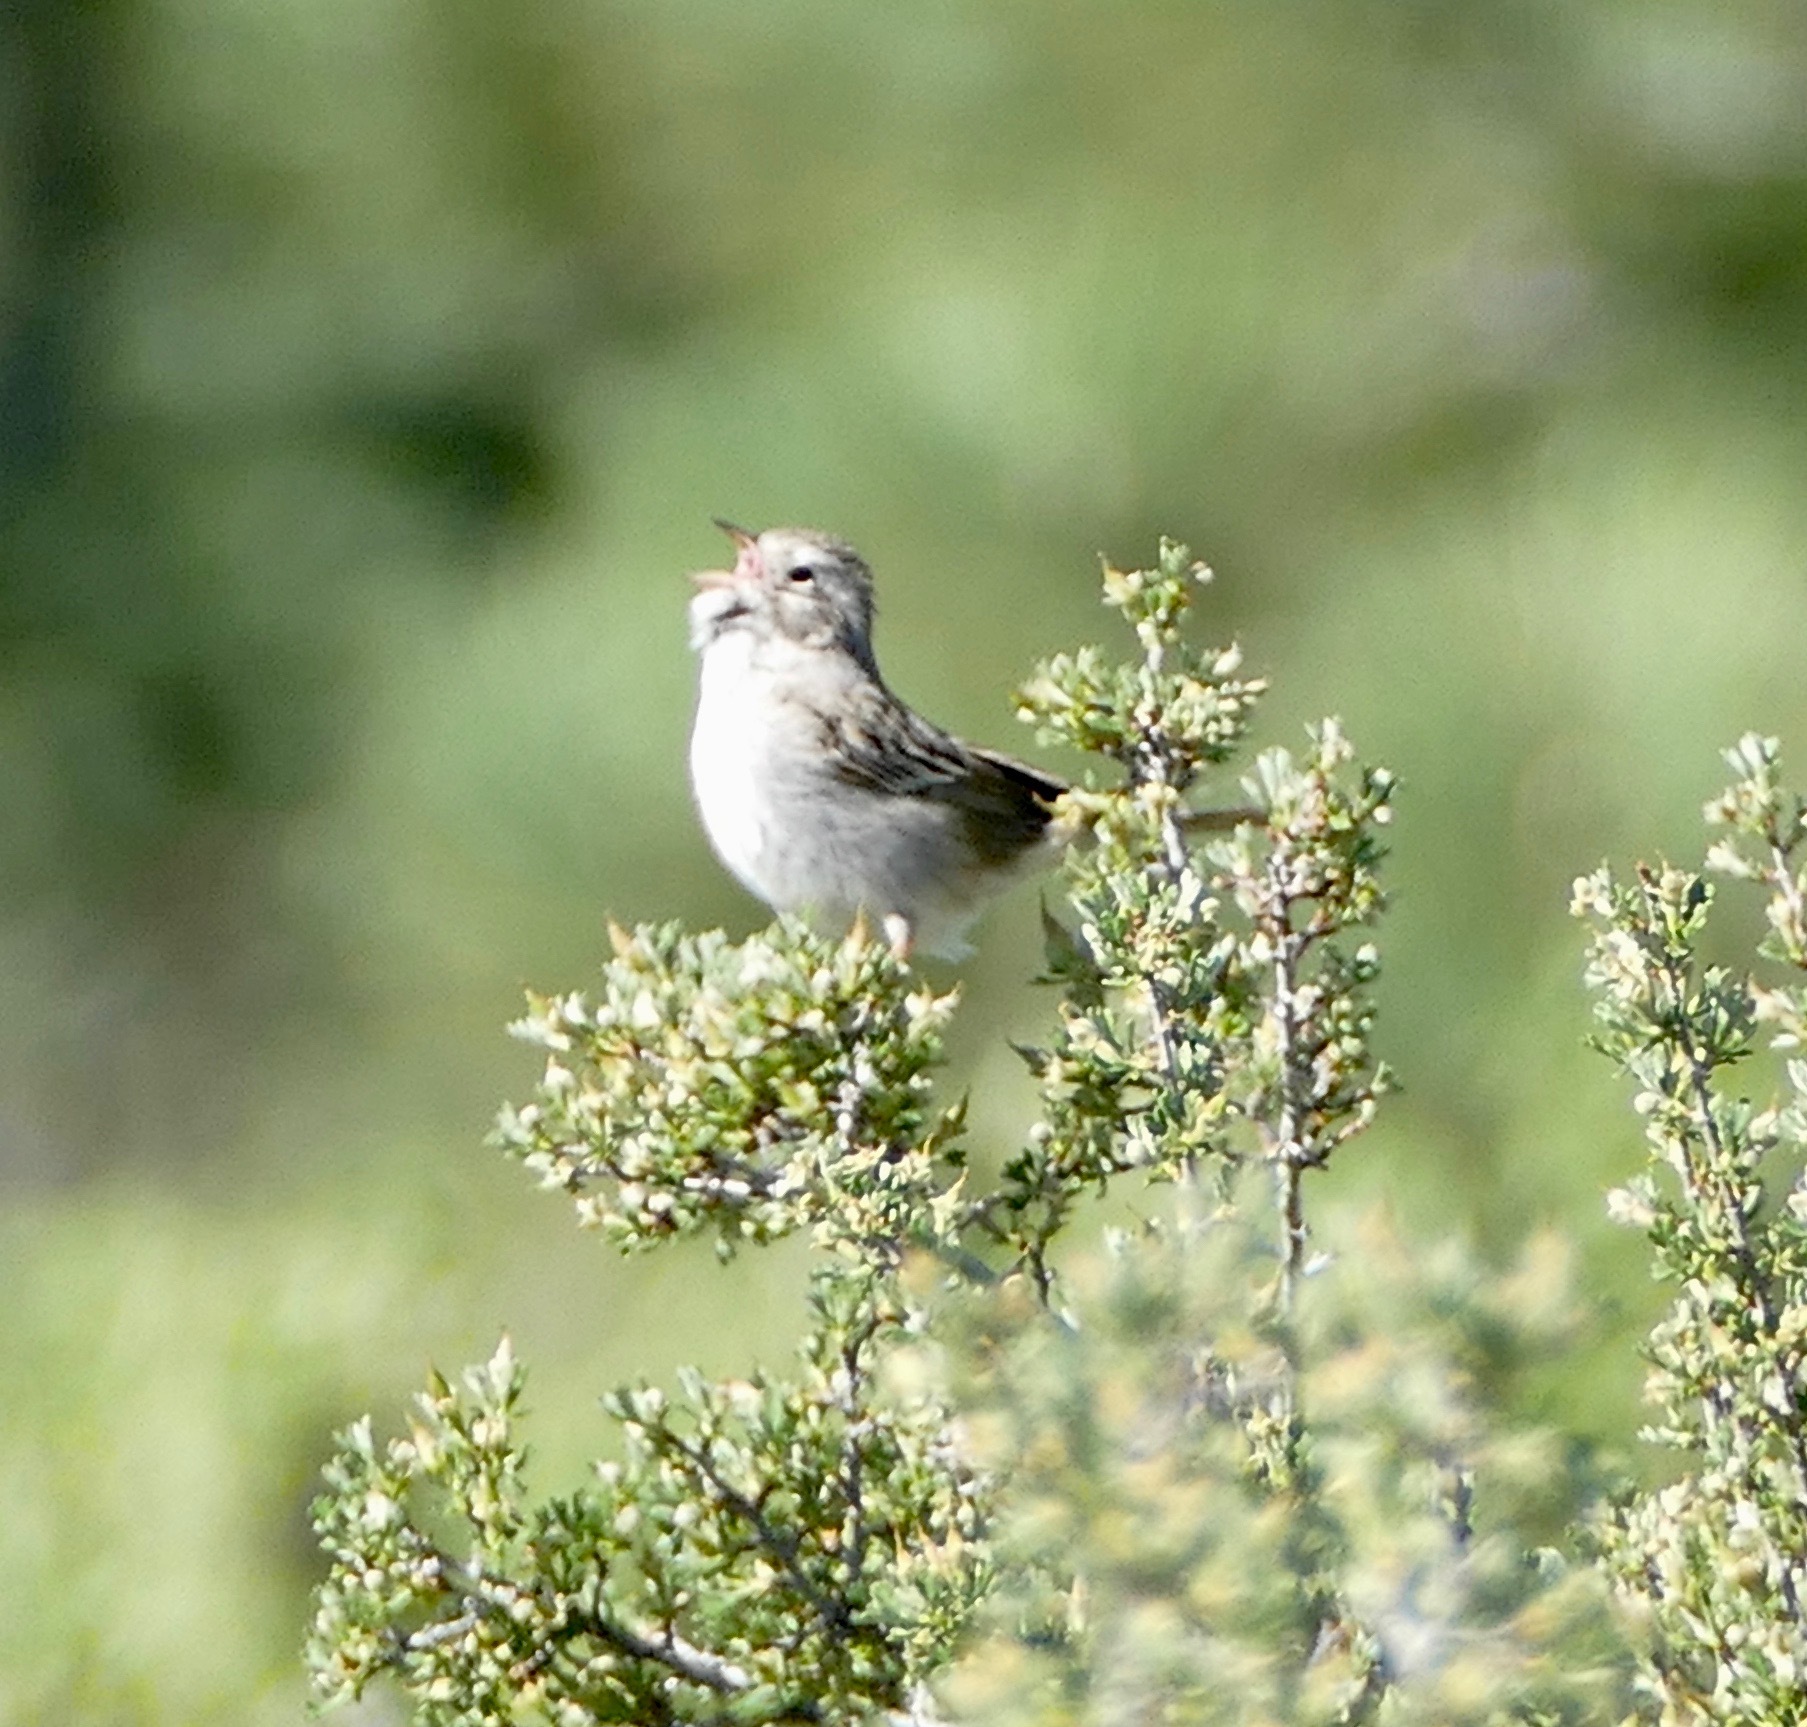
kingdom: Animalia
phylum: Chordata
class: Aves
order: Passeriformes
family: Passerellidae
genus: Spizella
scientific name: Spizella breweri
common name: Brewer's sparrow
